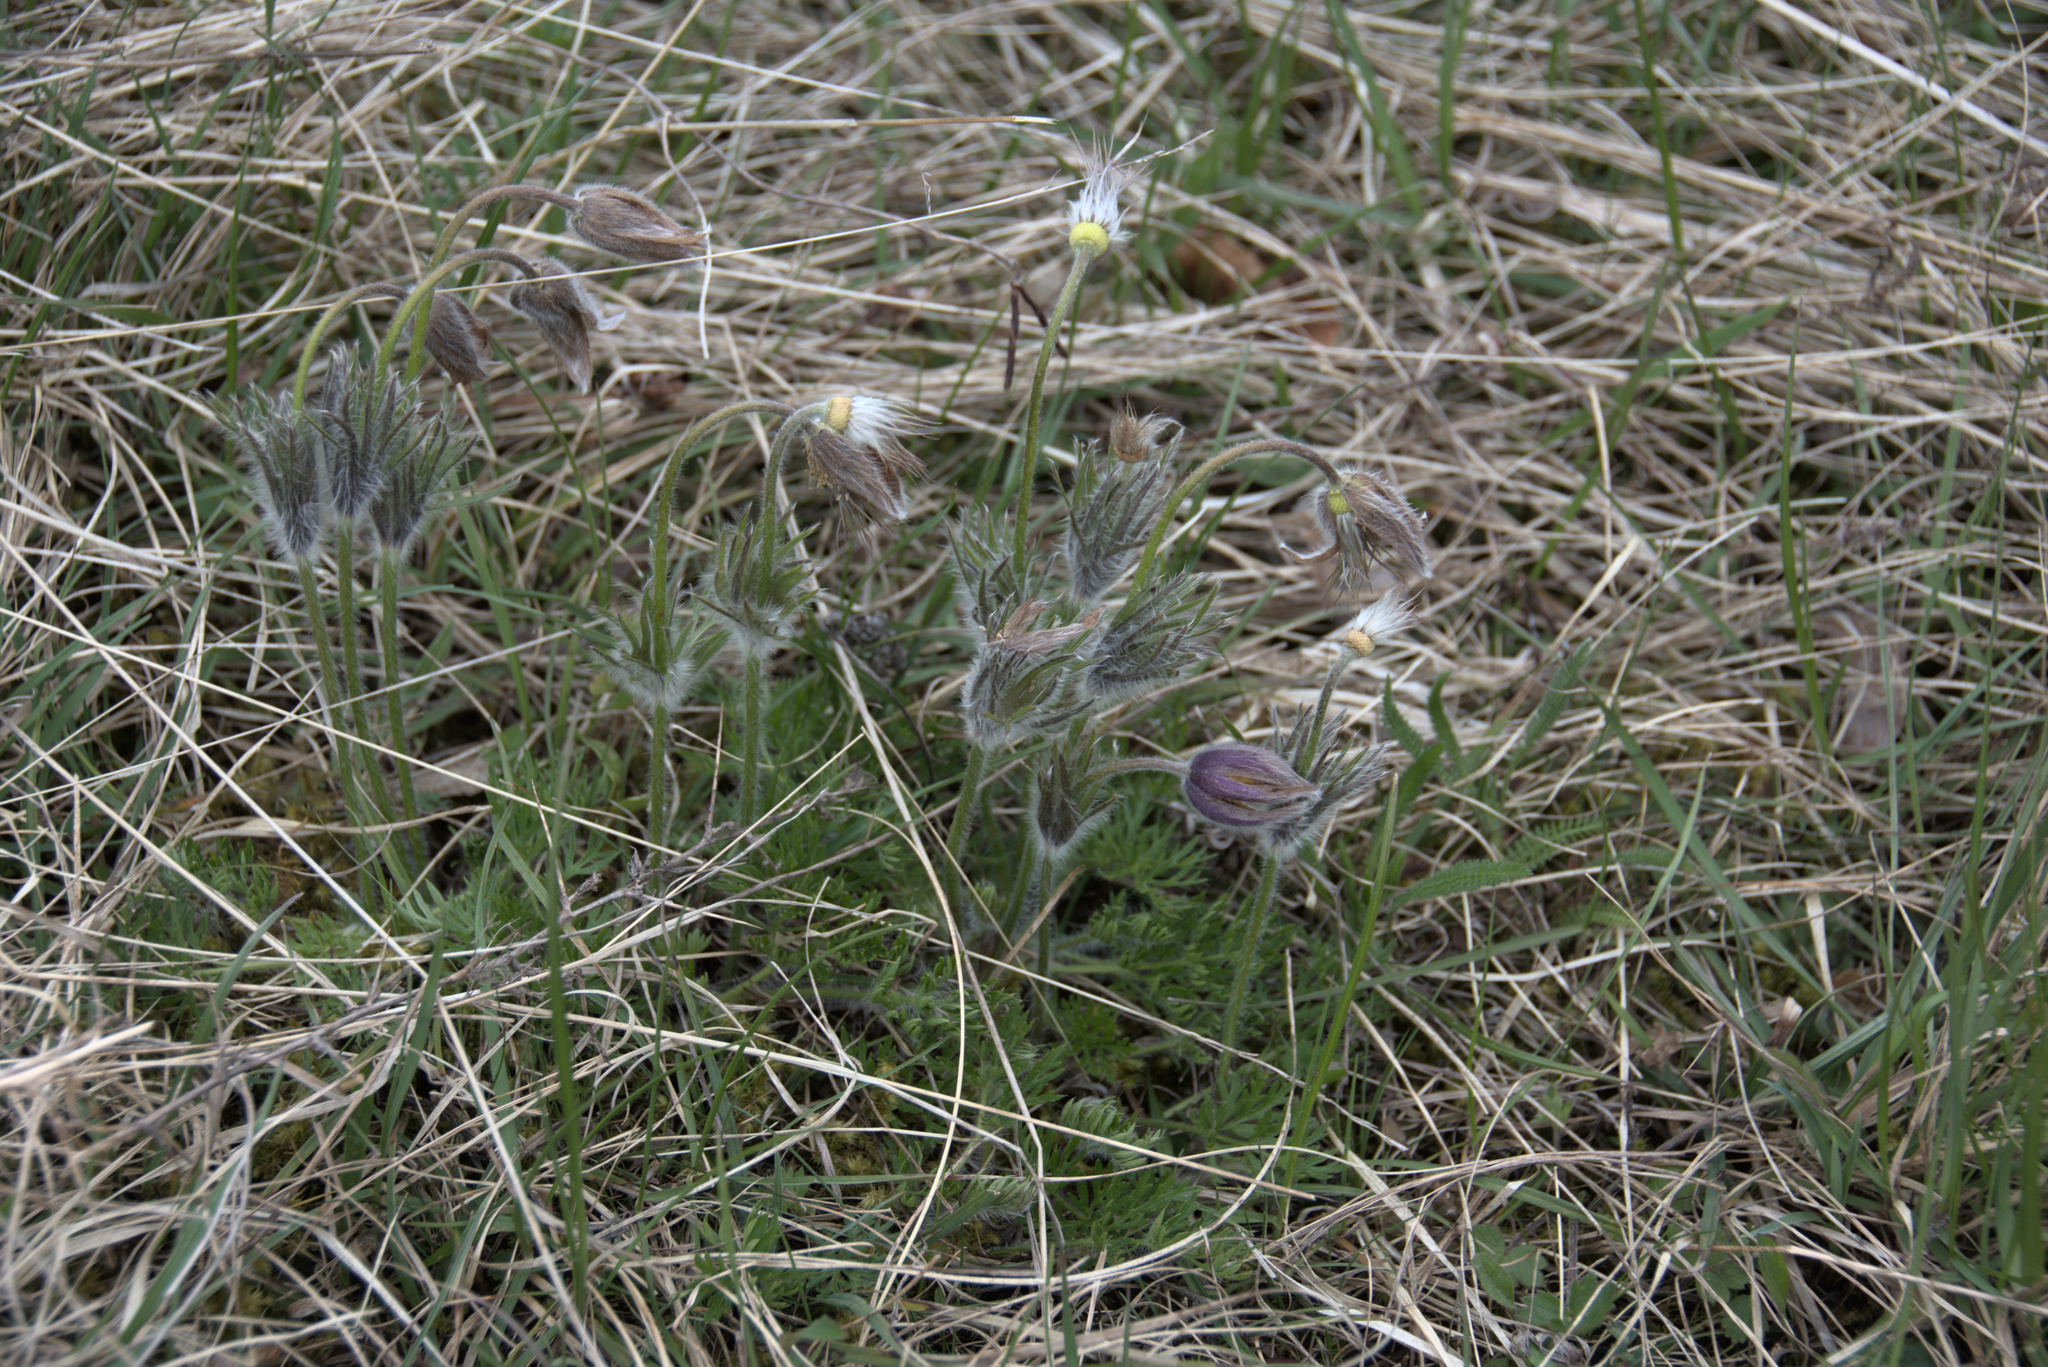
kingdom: Plantae
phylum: Tracheophyta
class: Magnoliopsida
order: Ranunculales
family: Ranunculaceae
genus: Pulsatilla
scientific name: Pulsatilla vulgaris
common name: Pasqueflower
